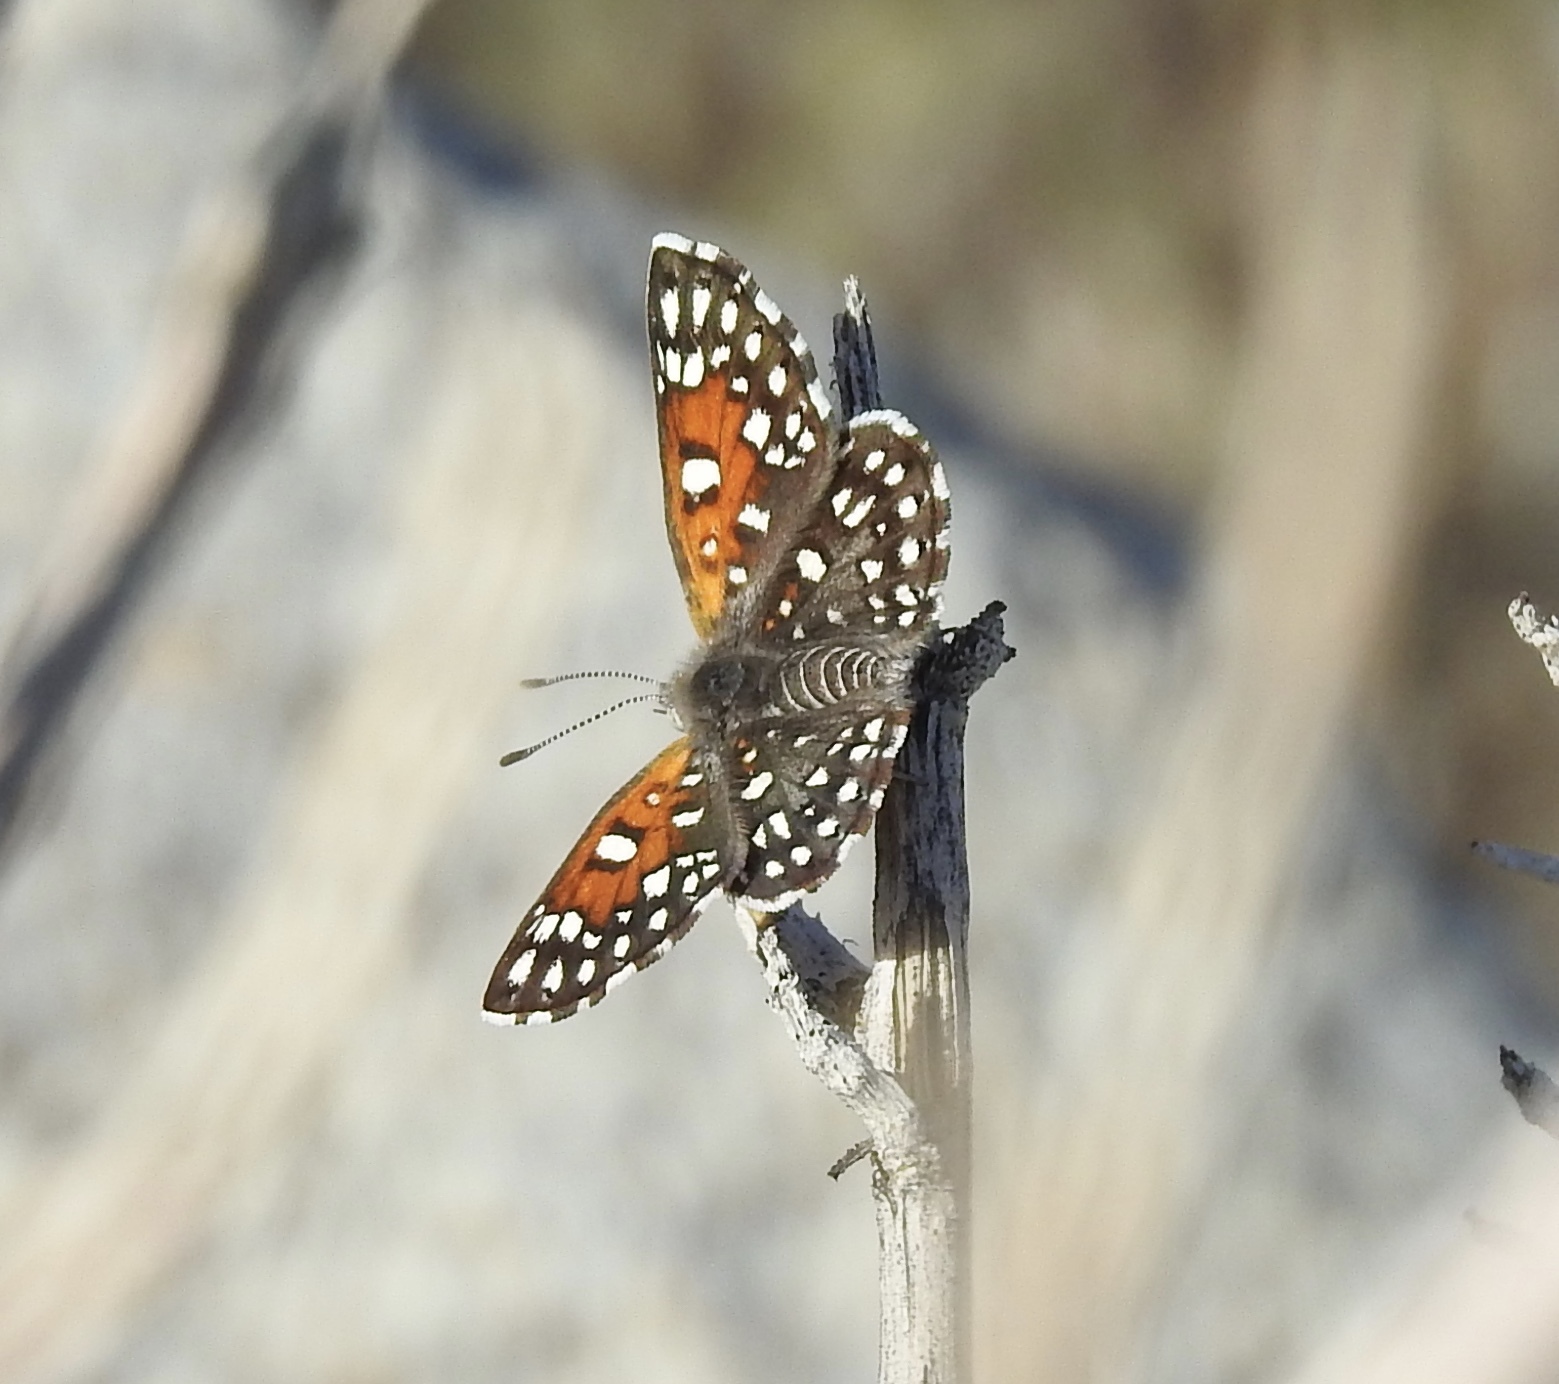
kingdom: Animalia
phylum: Arthropoda
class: Insecta
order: Lepidoptera
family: Riodinidae
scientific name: Riodinidae
